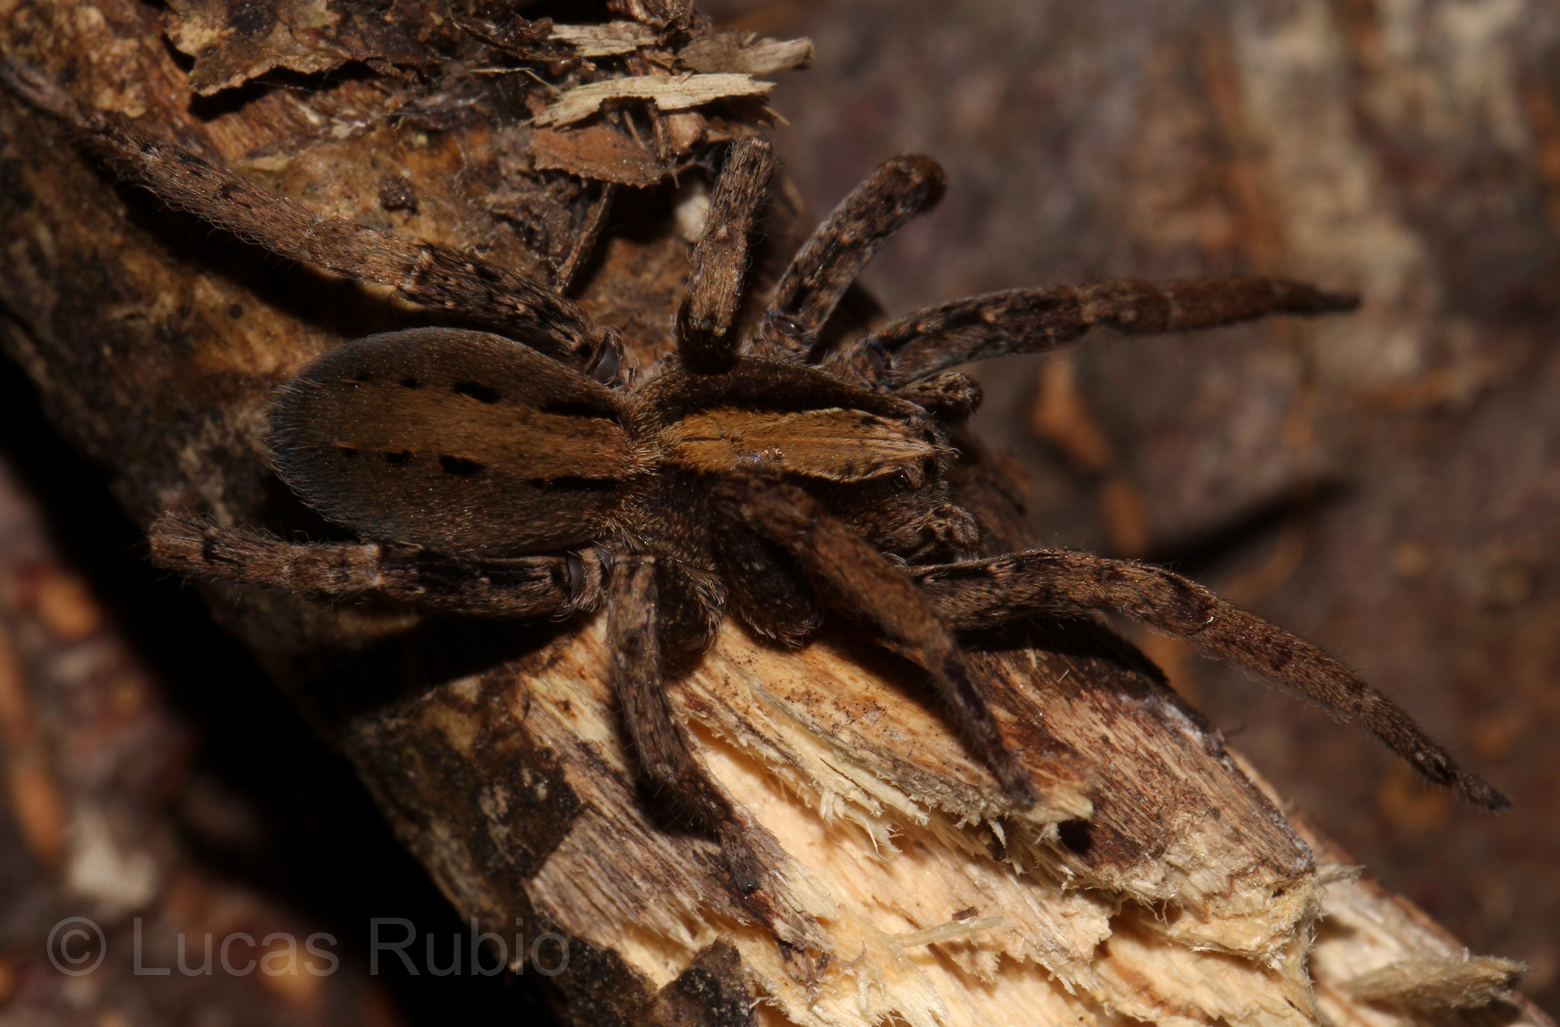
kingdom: Animalia
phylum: Arthropoda
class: Arachnida
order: Araneae
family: Ctenidae
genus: Parabatinga
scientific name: Parabatinga brevipes
